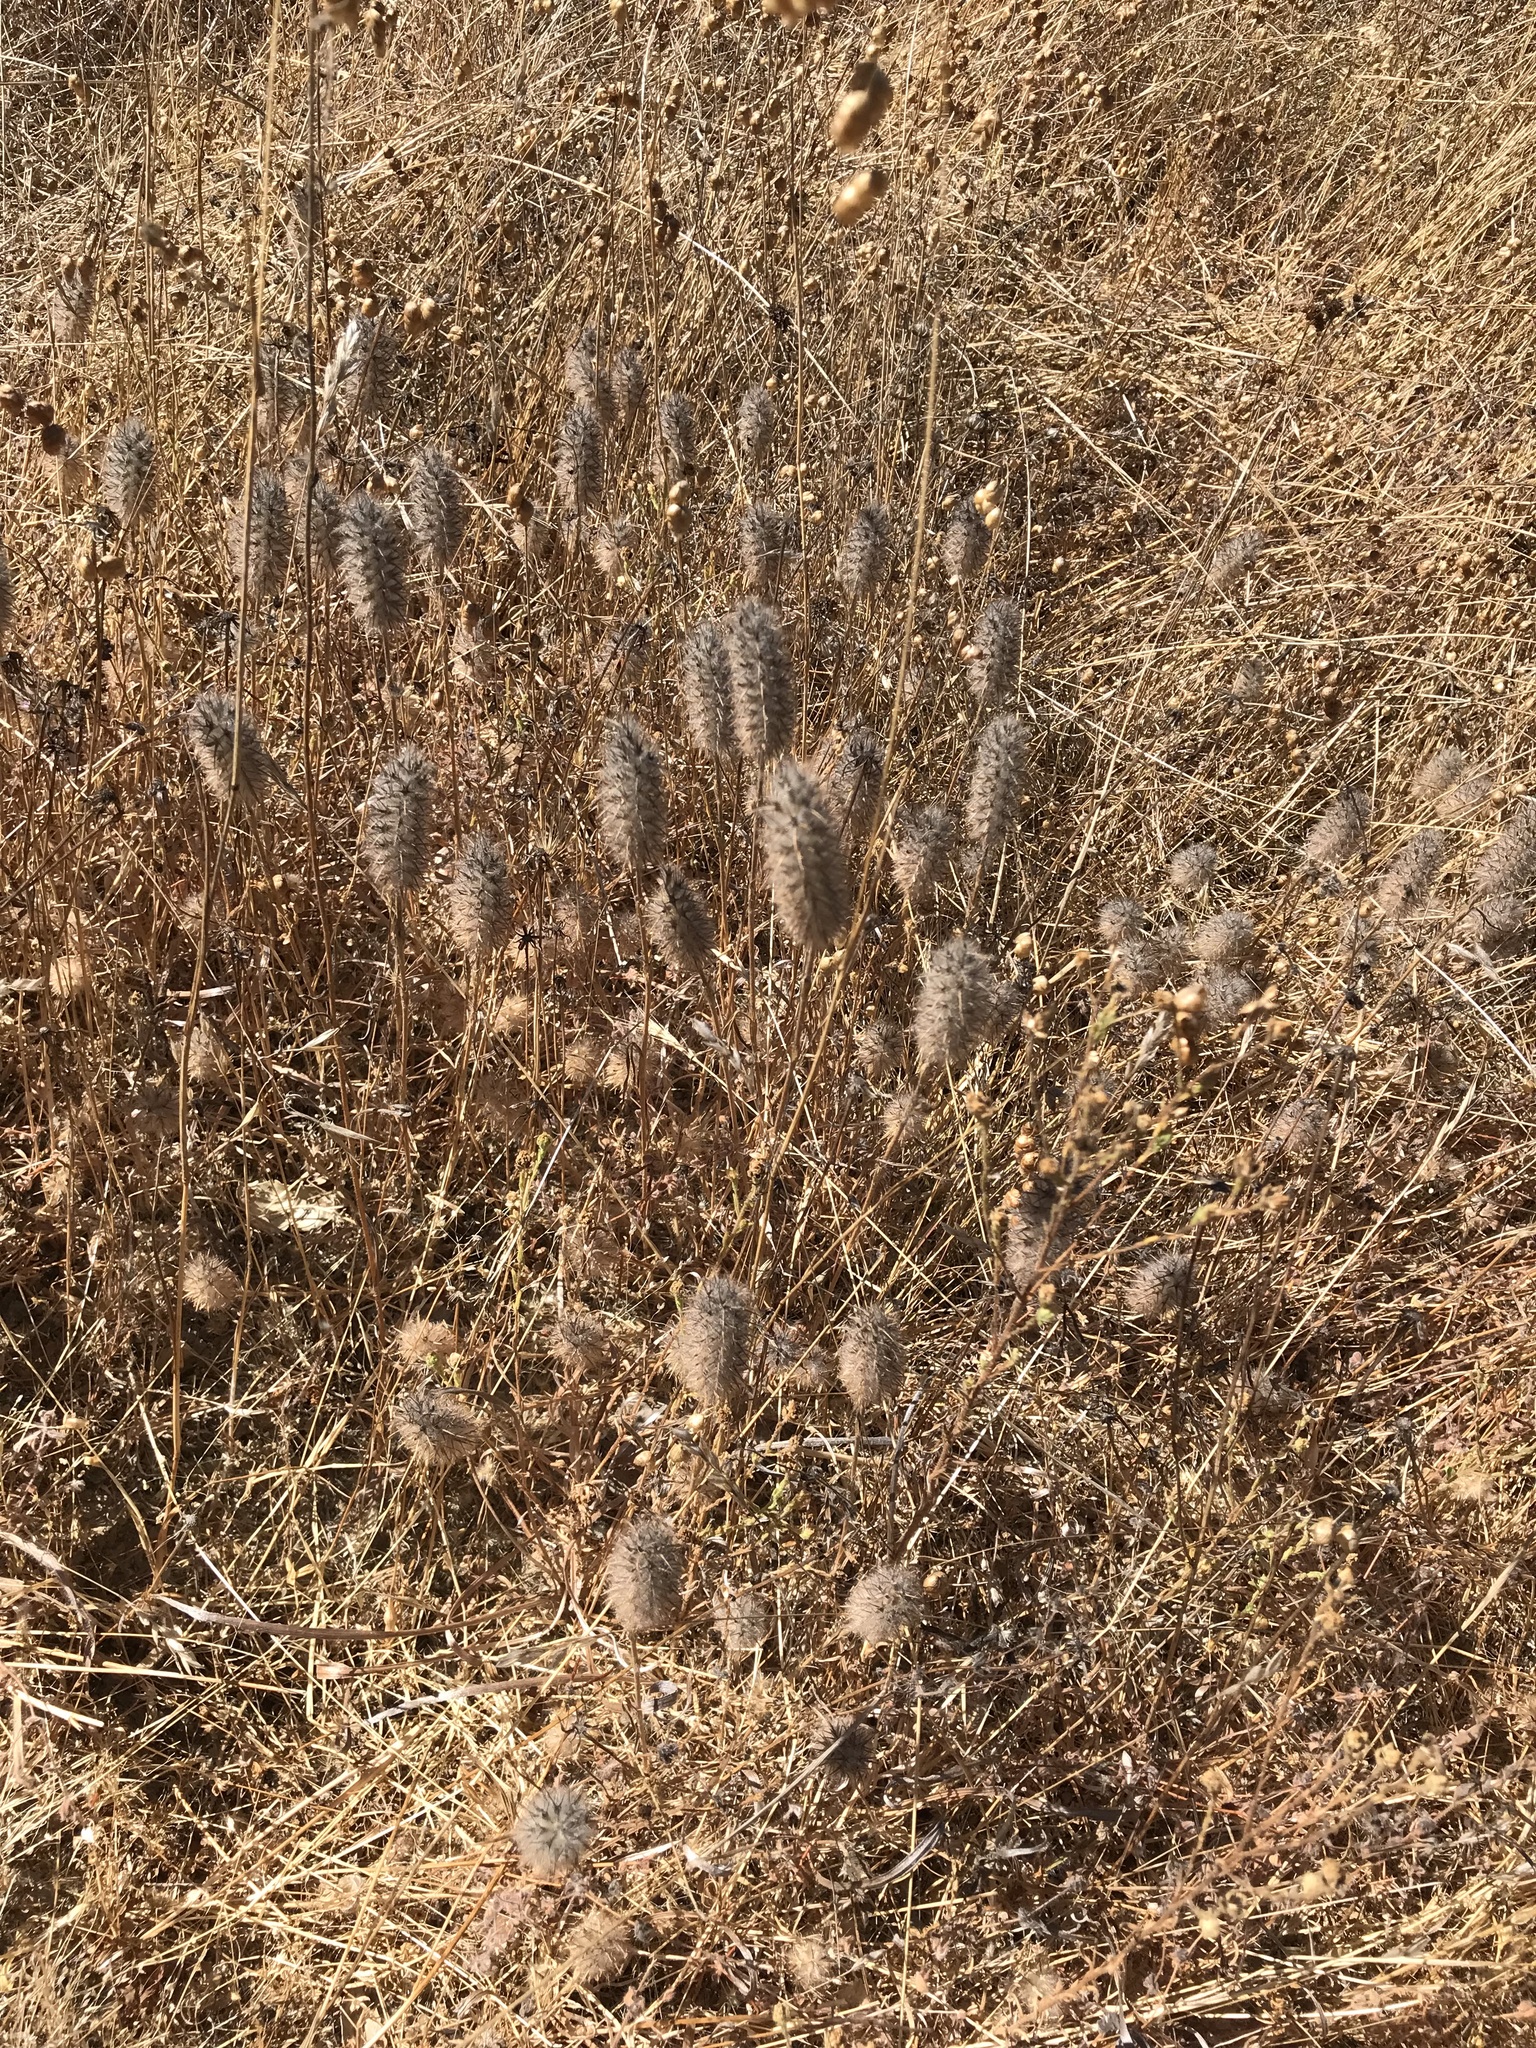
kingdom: Plantae
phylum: Tracheophyta
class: Magnoliopsida
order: Fabales
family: Fabaceae
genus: Trifolium
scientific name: Trifolium angustifolium
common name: Narrow clover
